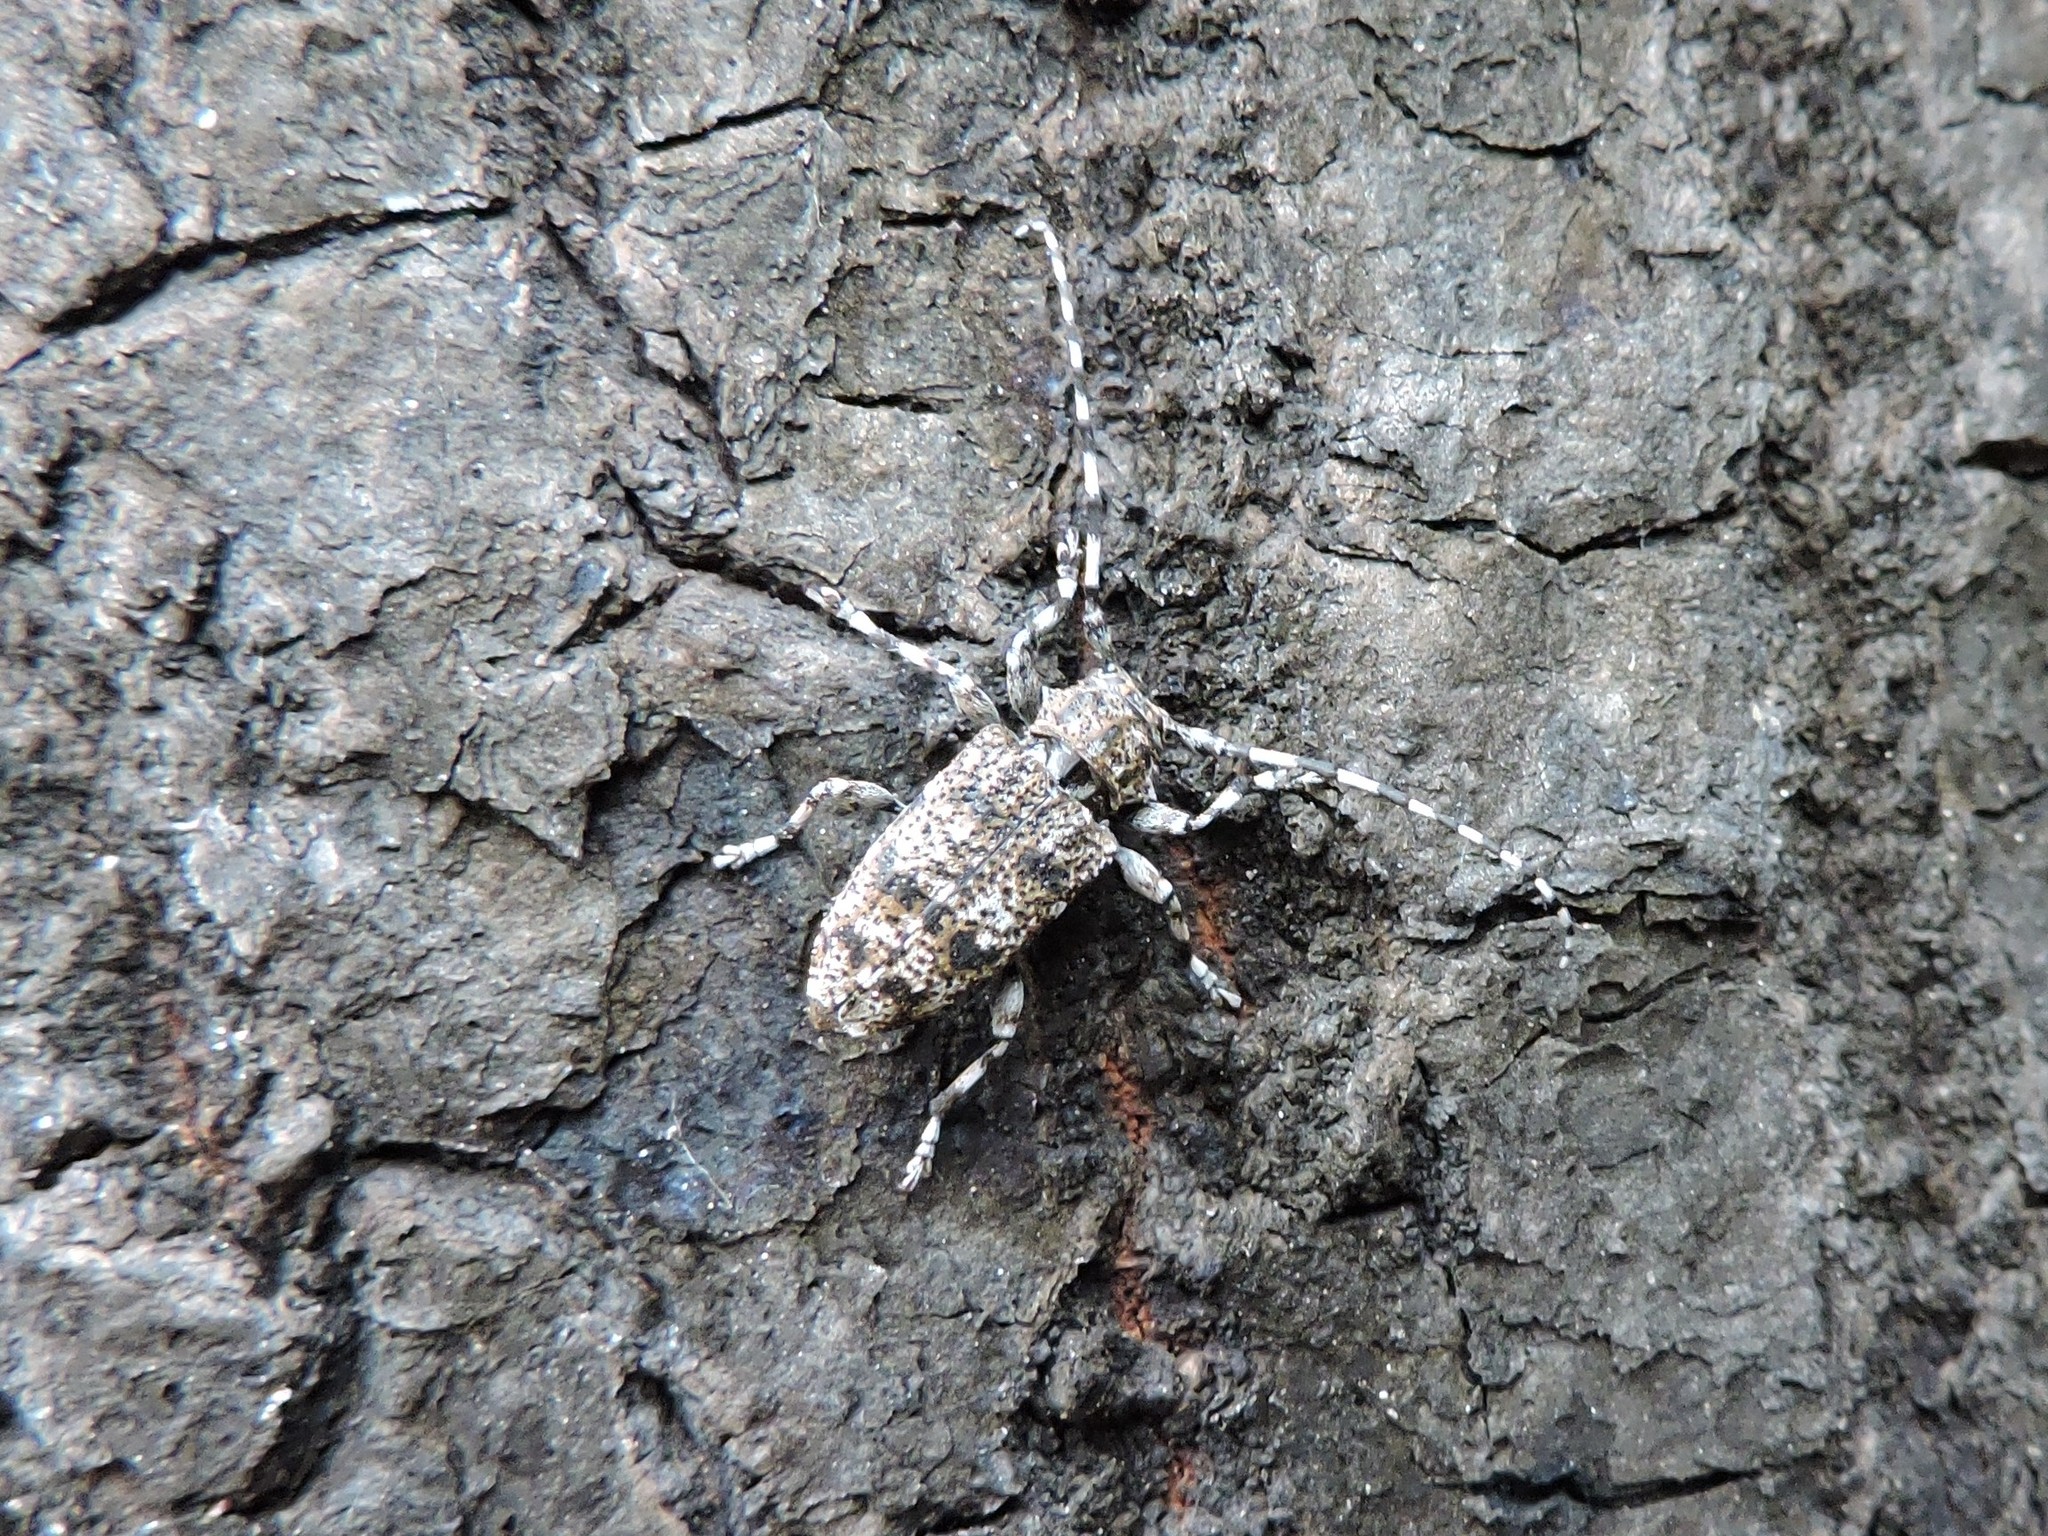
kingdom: Animalia
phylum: Arthropoda
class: Insecta
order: Coleoptera
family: Cerambycidae
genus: Aegomorphus
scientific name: Aegomorphus clavipes
